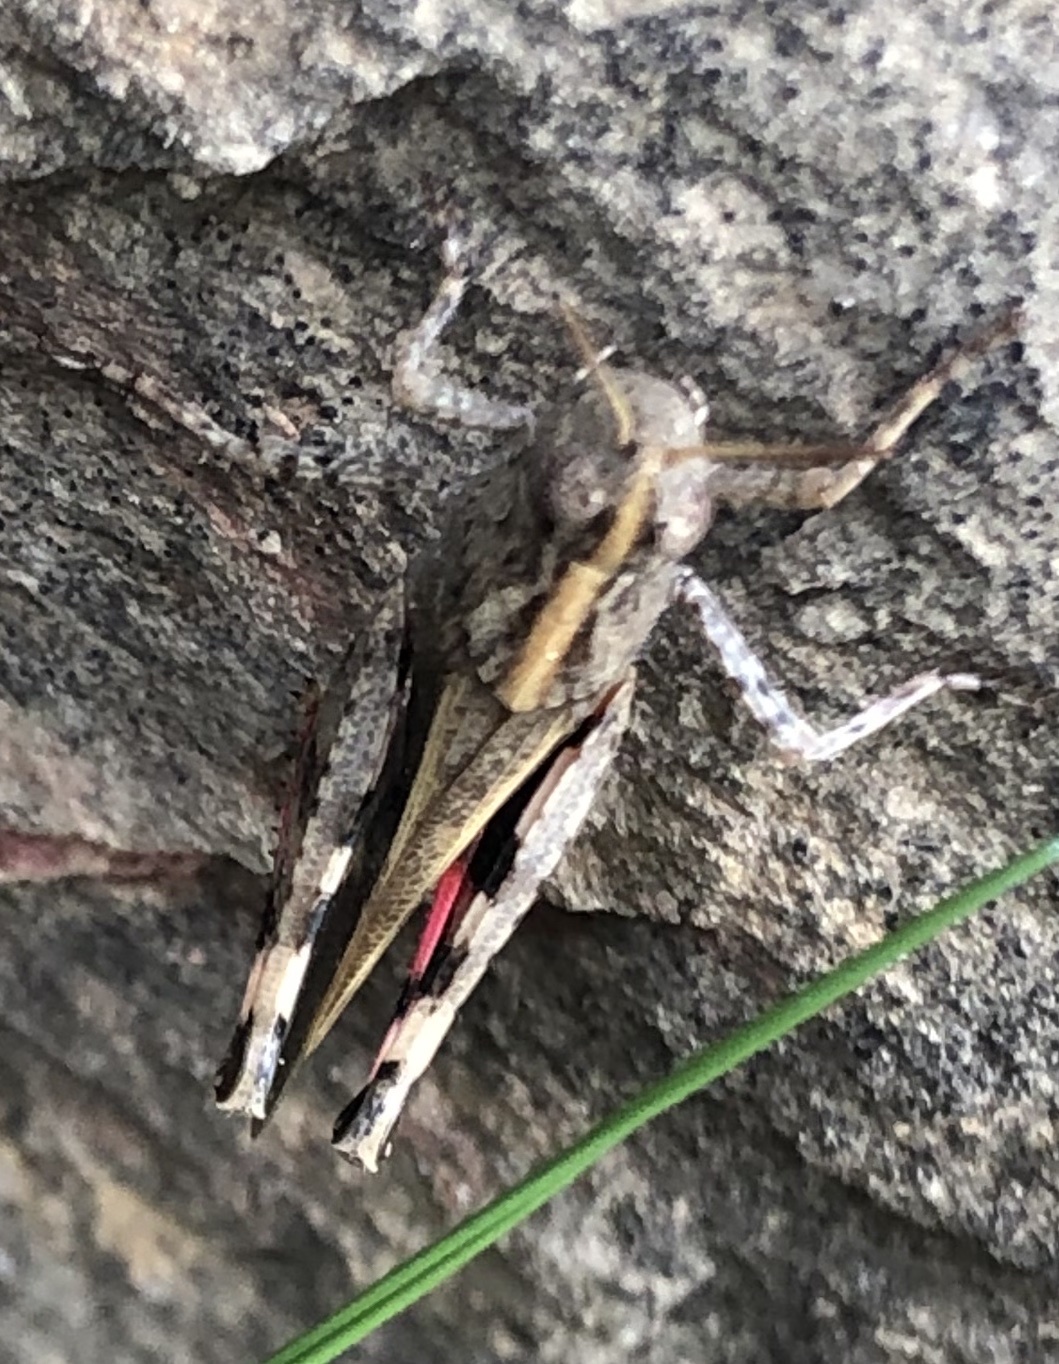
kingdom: Animalia
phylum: Arthropoda
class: Insecta
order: Orthoptera
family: Acrididae
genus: Aiolopus
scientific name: Aiolopus strepens
